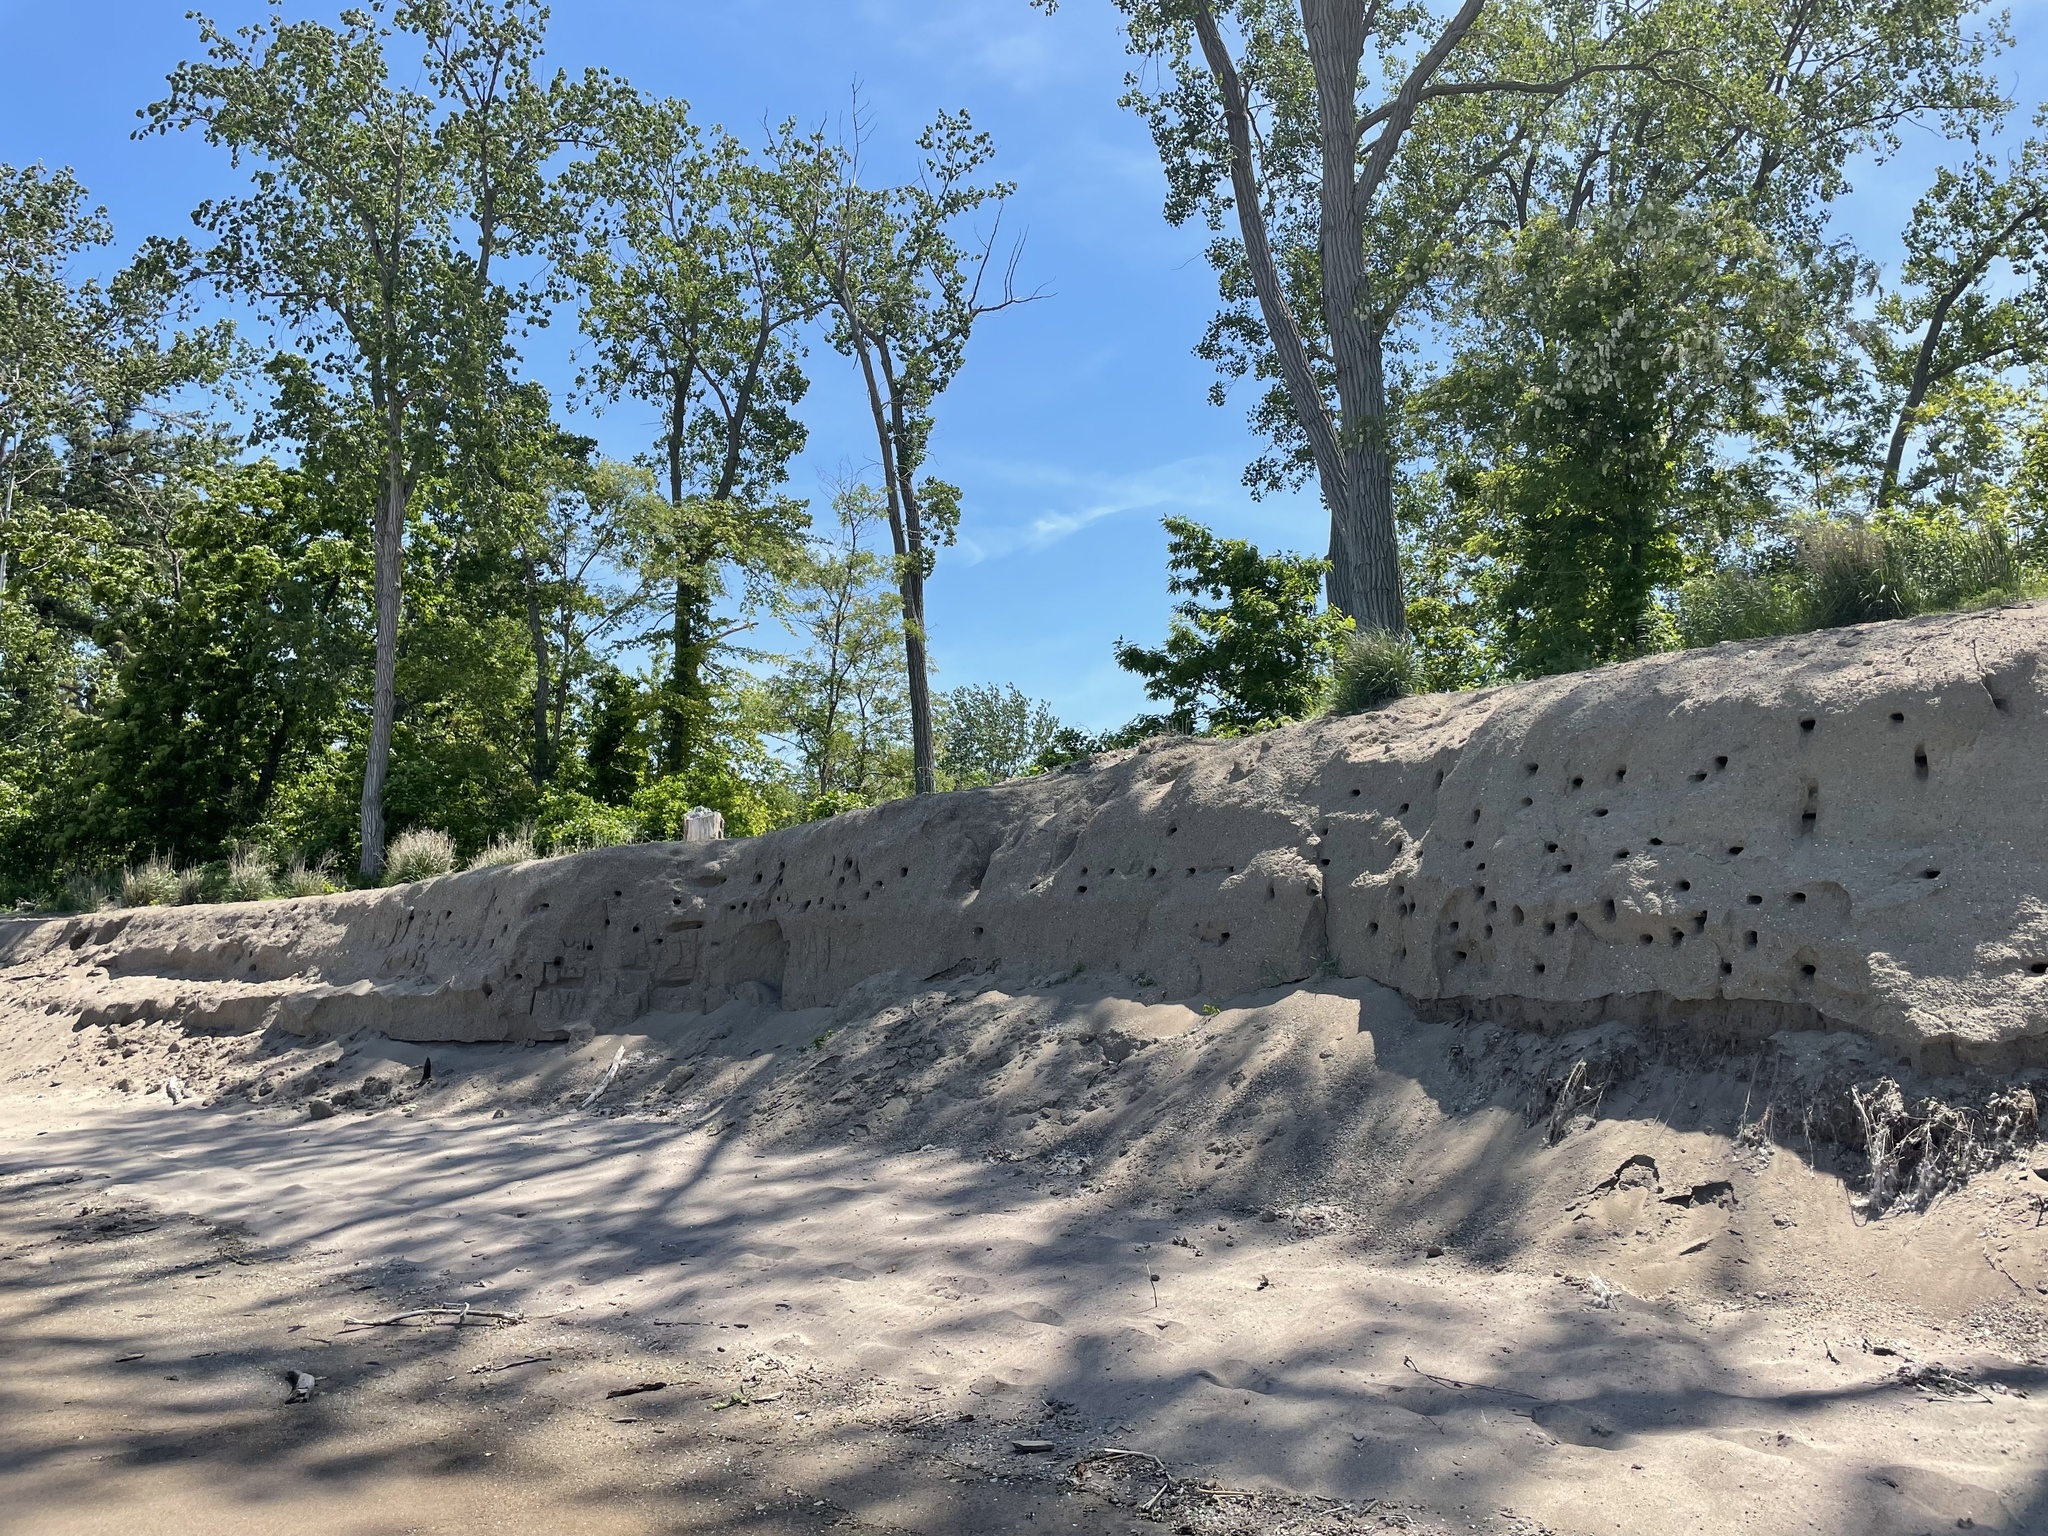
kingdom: Animalia
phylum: Chordata
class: Aves
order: Passeriformes
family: Hirundinidae
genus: Riparia
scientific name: Riparia riparia
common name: Sand martin
